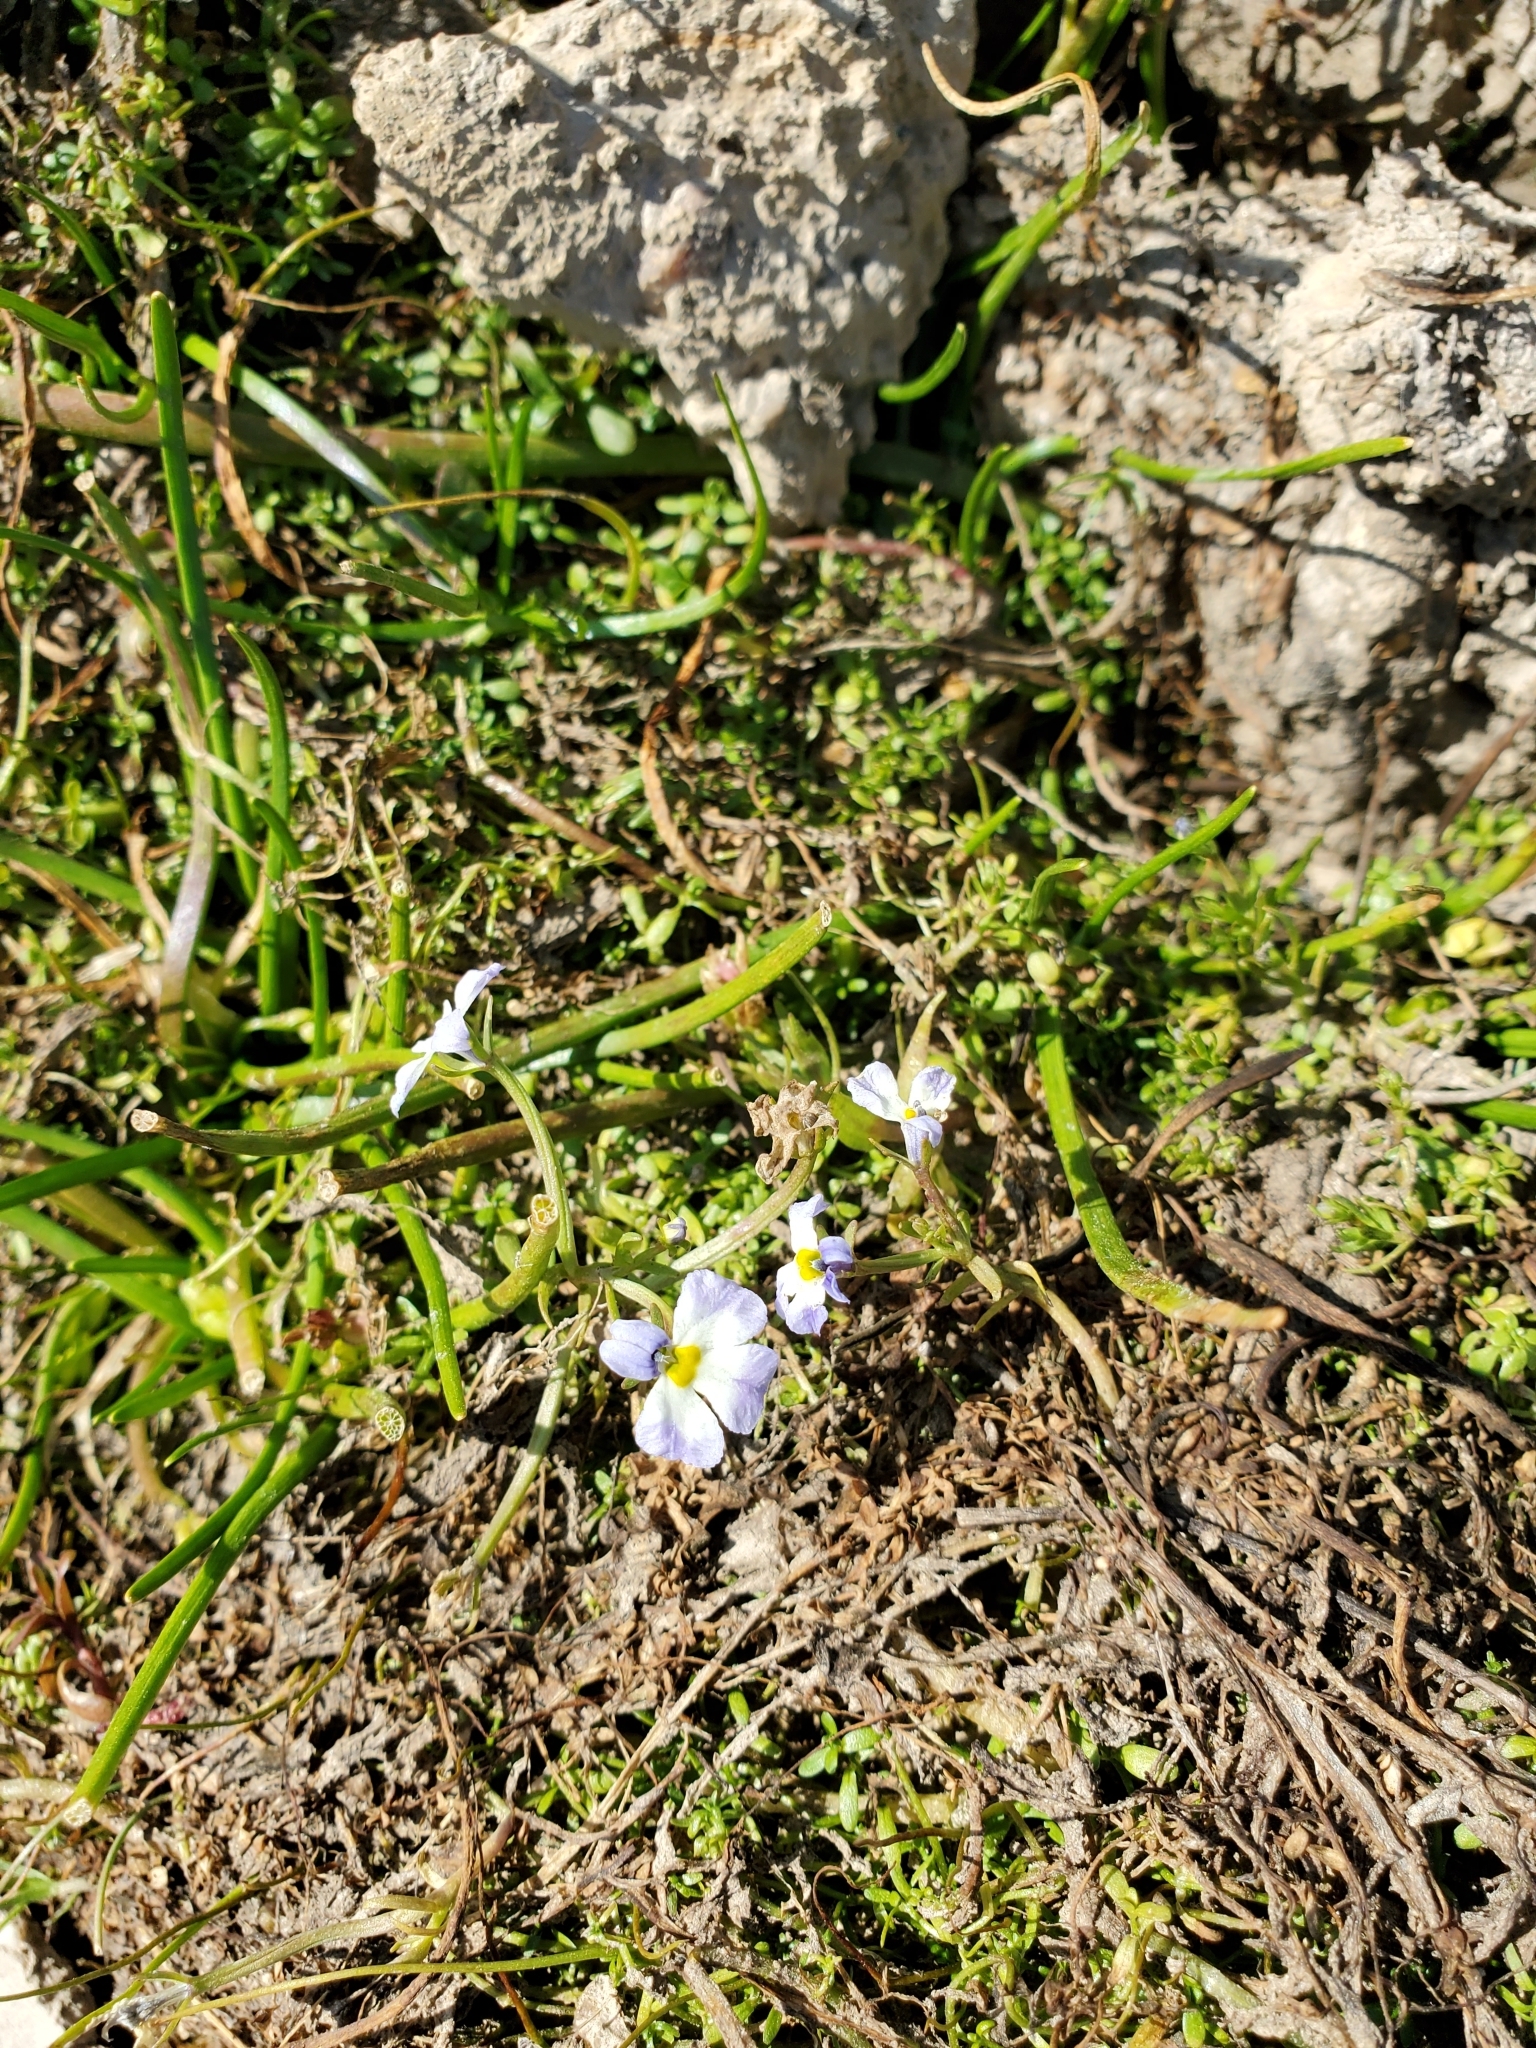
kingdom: Plantae
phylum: Tracheophyta
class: Magnoliopsida
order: Asterales
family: Campanulaceae
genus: Downingia
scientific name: Downingia cuspidata
